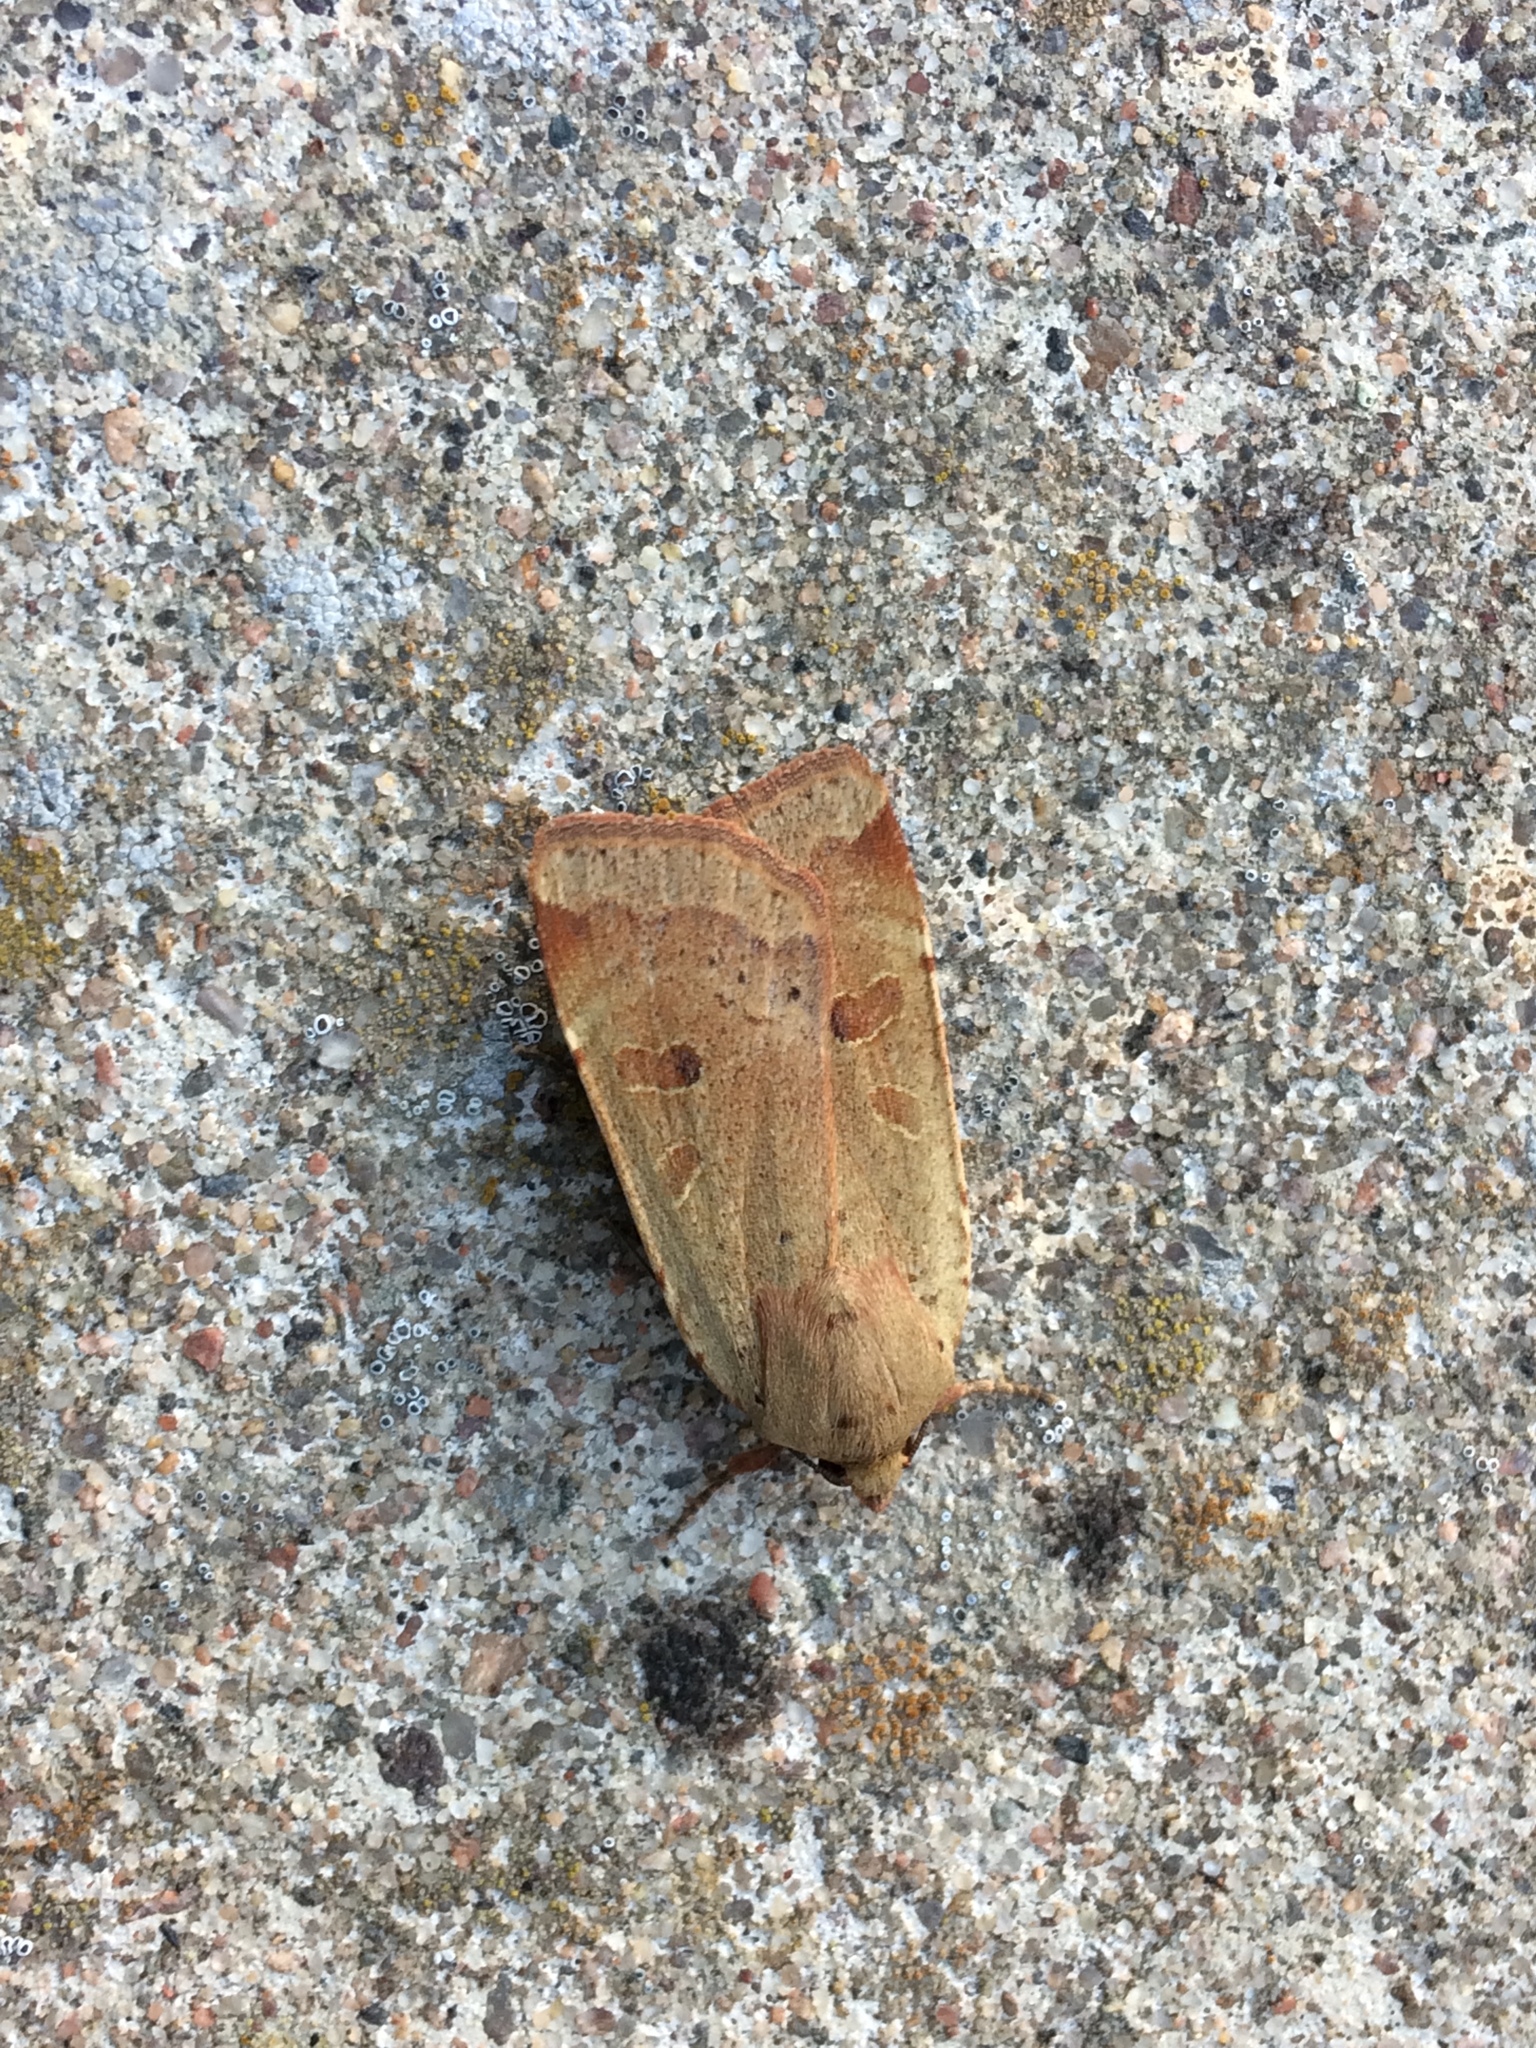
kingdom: Animalia
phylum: Arthropoda
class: Insecta
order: Lepidoptera
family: Noctuidae
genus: Noctua
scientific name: Noctua comes
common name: Lesser yellow underwing
